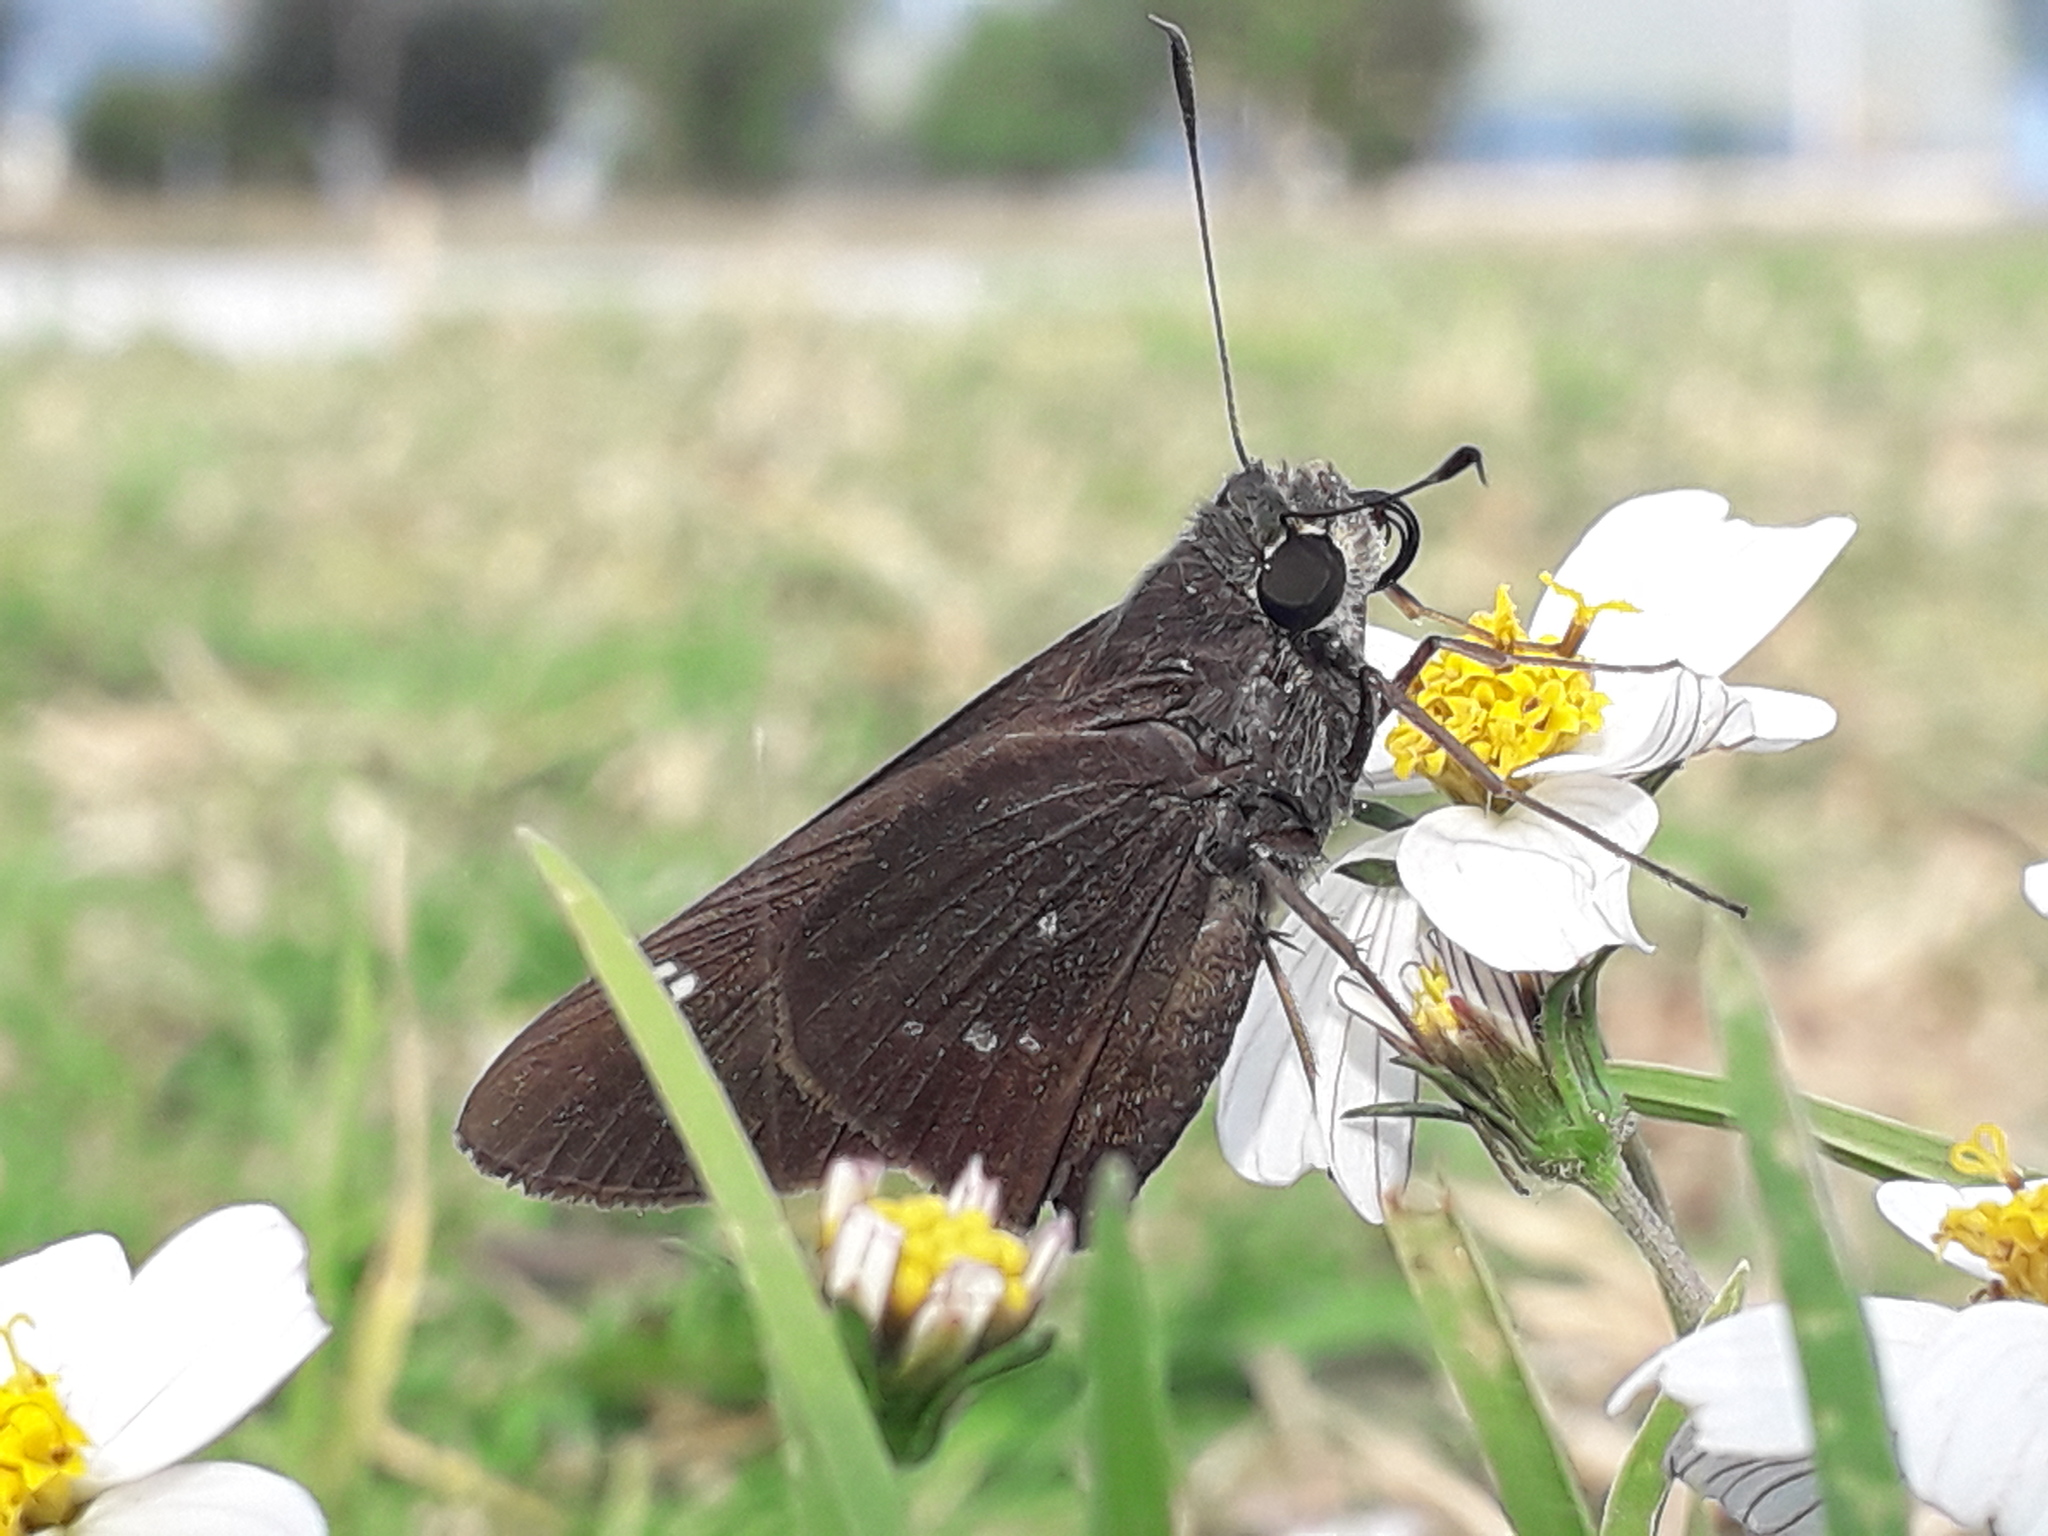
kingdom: Animalia
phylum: Arthropoda
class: Insecta
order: Lepidoptera
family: Hesperiidae
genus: Rhinthon
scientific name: Rhinthon cubana
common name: Cuban skipper
